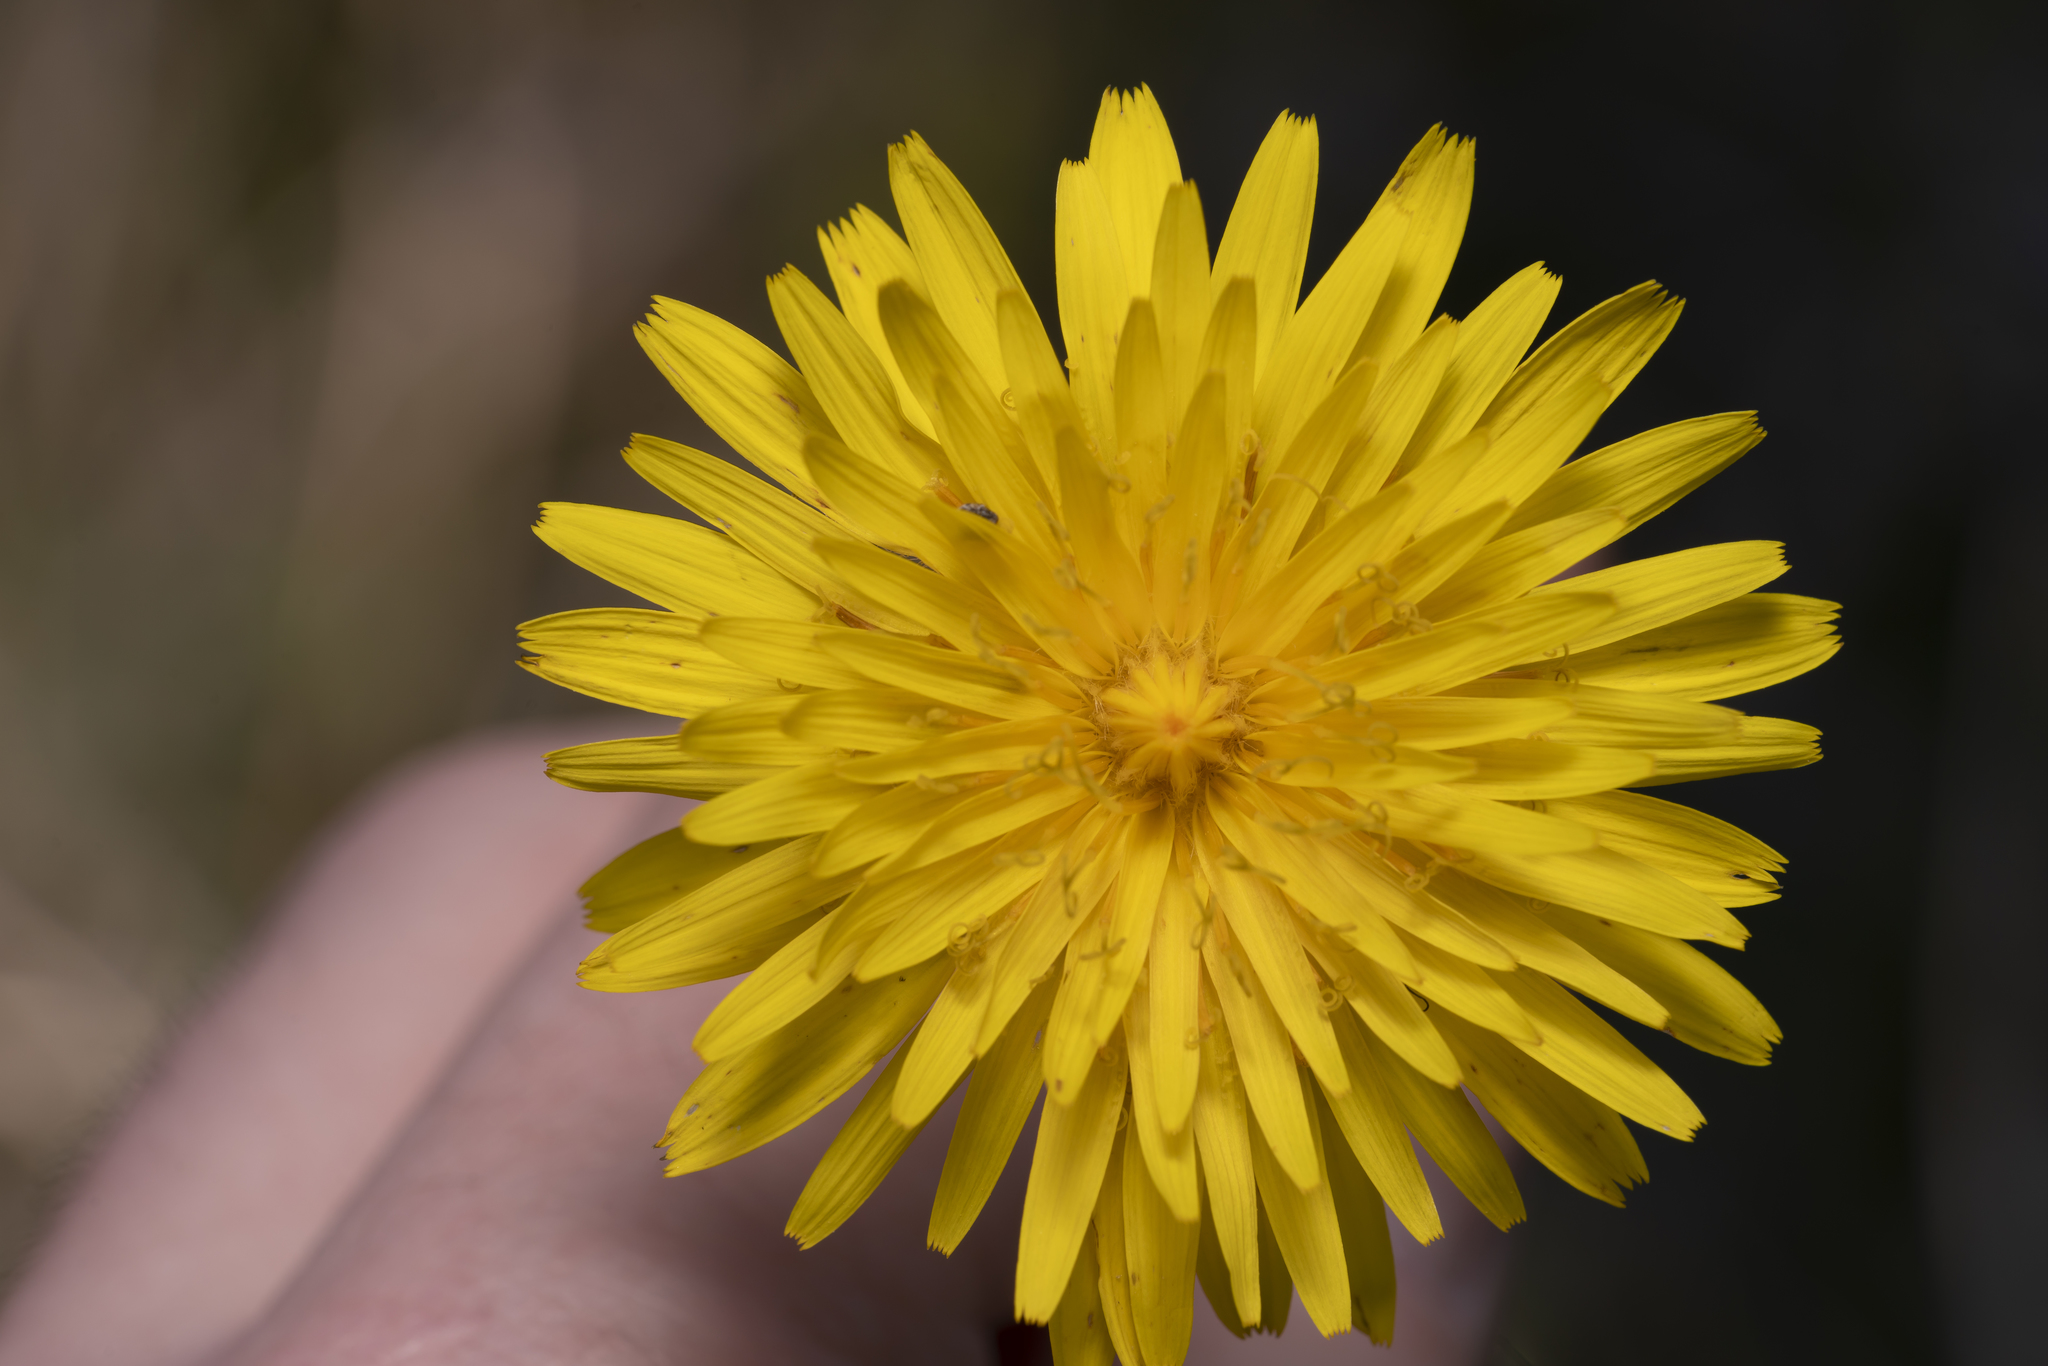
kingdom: Plantae
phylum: Tracheophyta
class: Magnoliopsida
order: Asterales
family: Asteraceae
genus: Reichardia
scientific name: Reichardia picroides
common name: Common brighteyes
